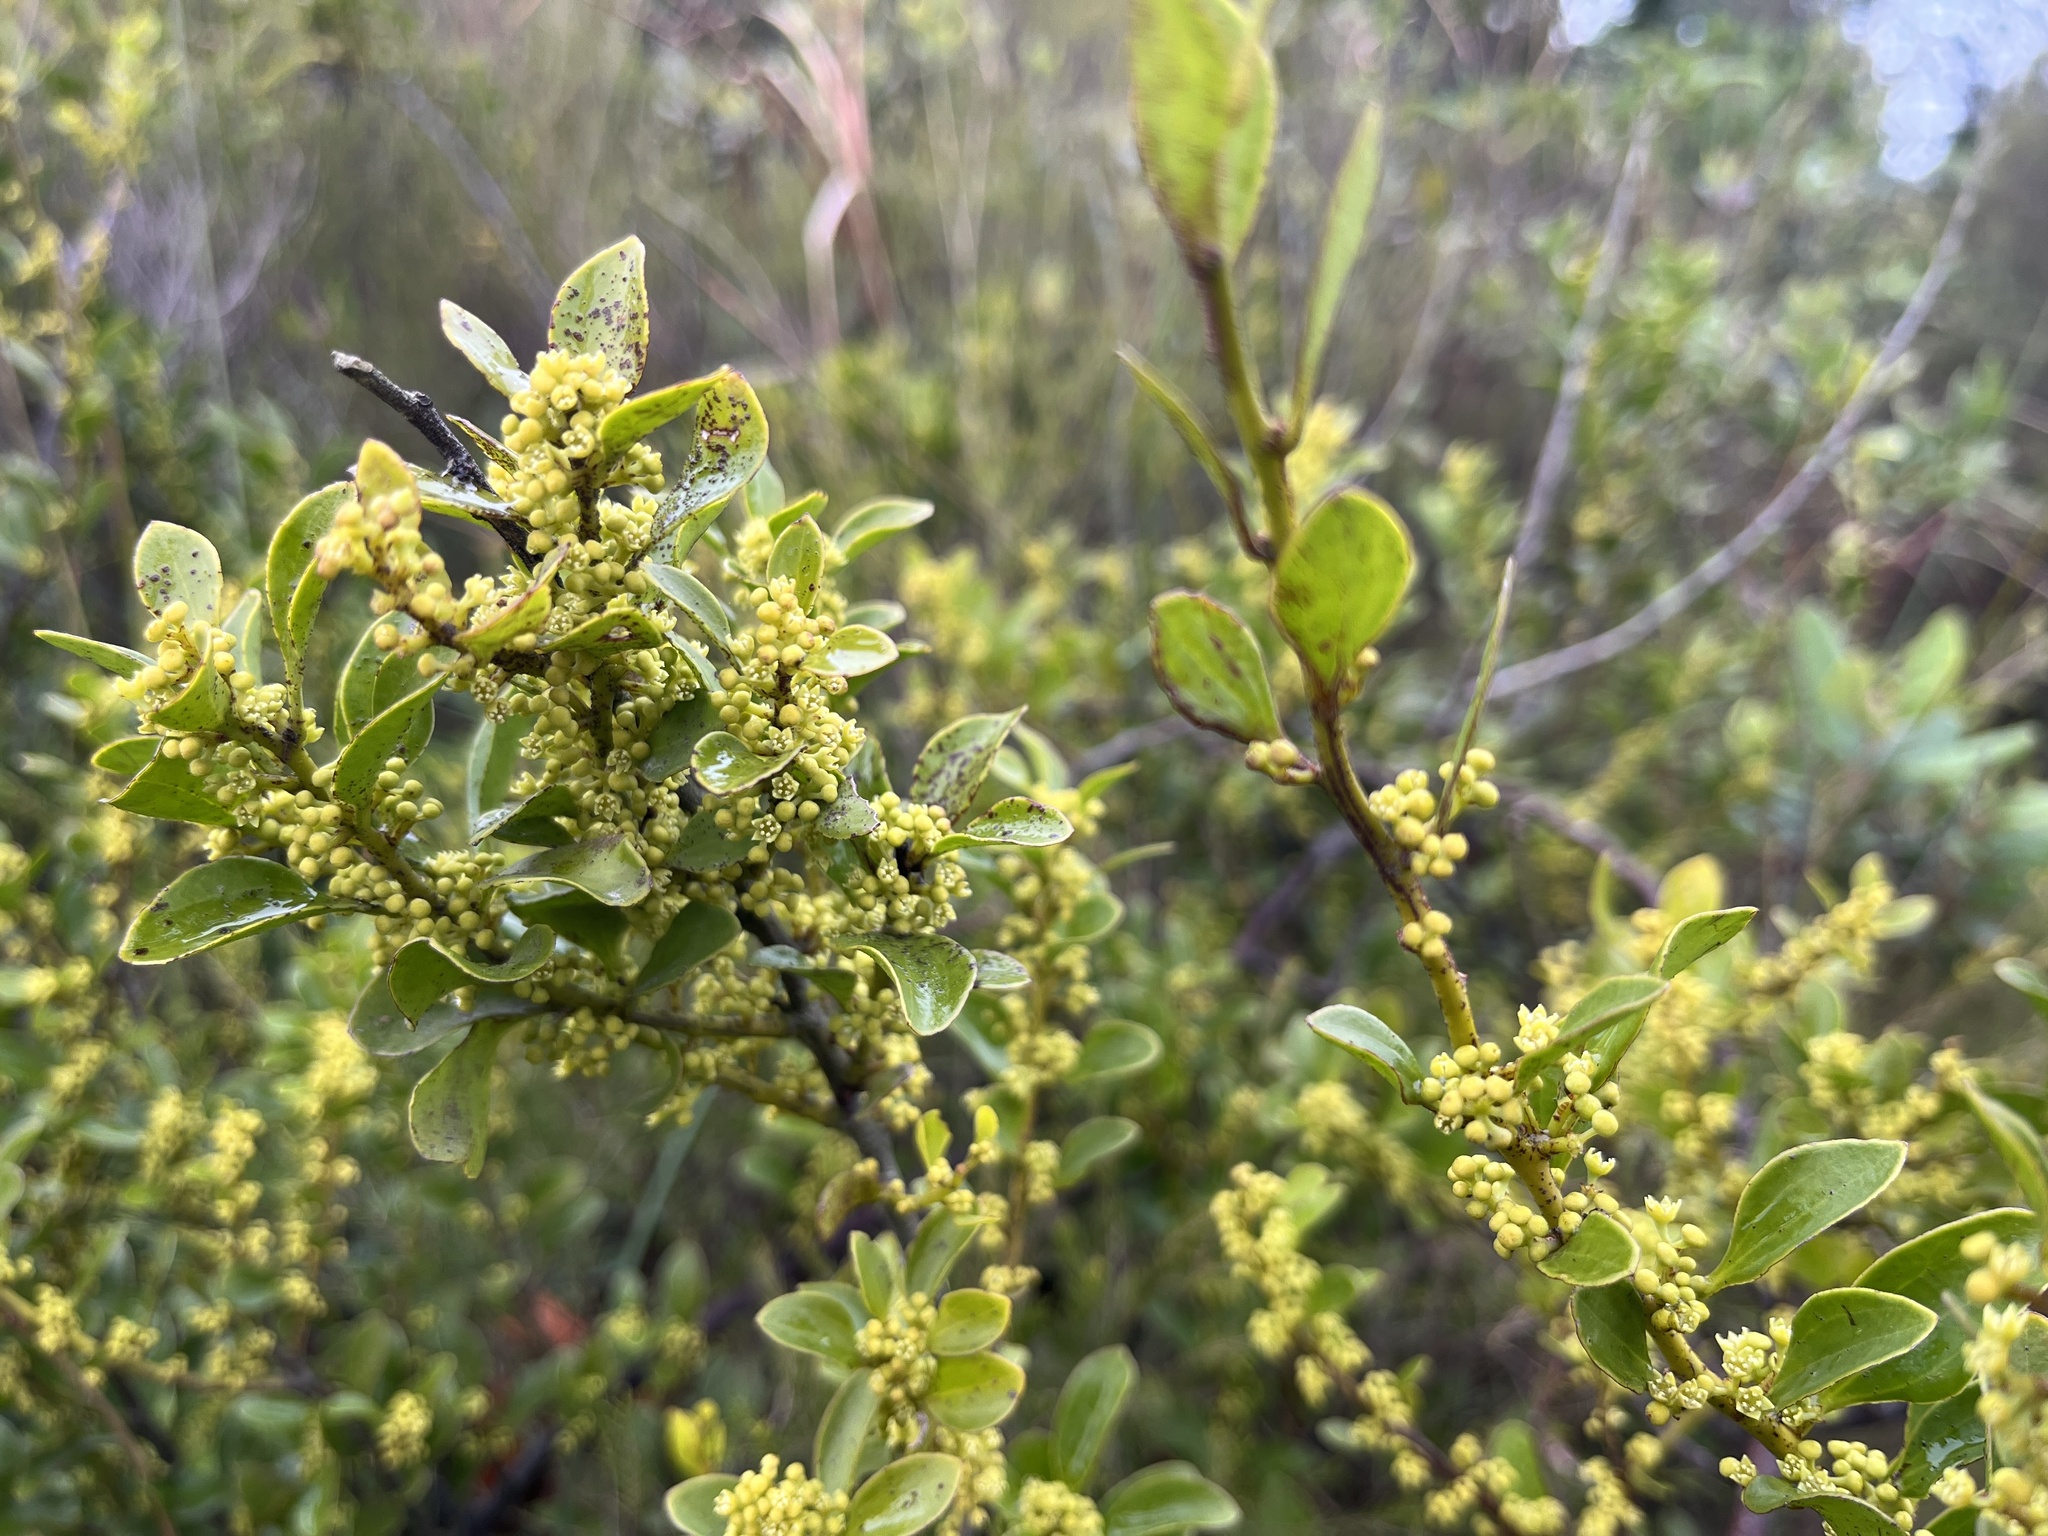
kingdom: Plantae
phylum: Tracheophyta
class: Magnoliopsida
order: Santalales
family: Amphorogynaceae
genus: Dendrotrophe
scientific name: Dendrotrophe varians
